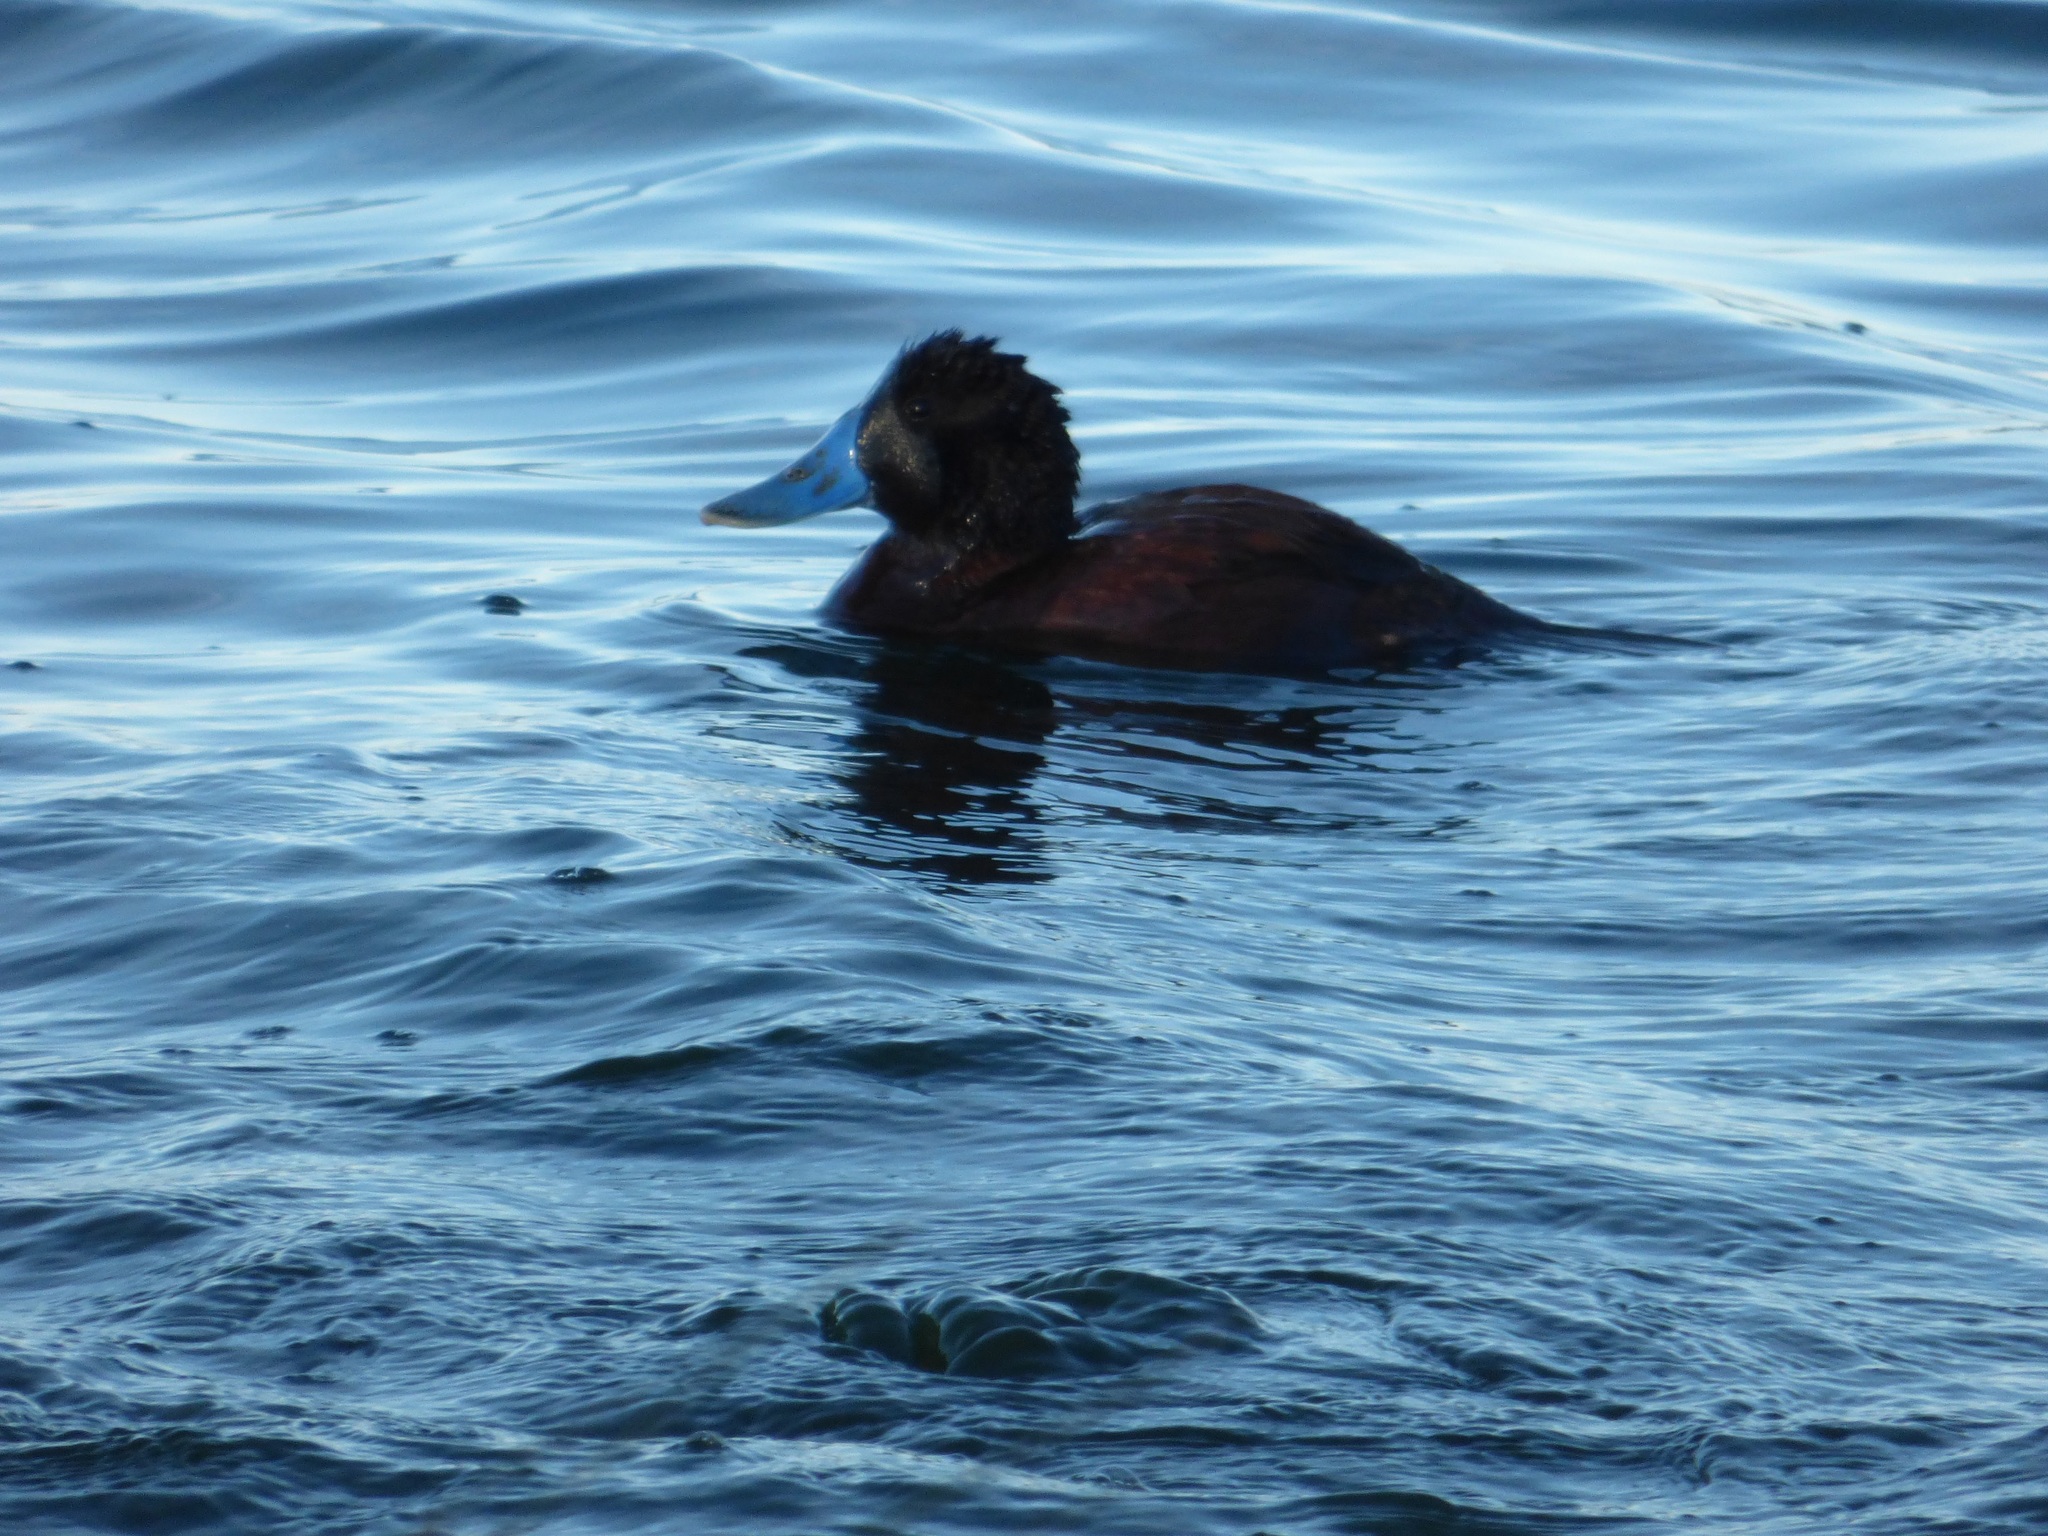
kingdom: Animalia
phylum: Chordata
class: Aves
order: Anseriformes
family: Anatidae
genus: Oxyura
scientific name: Oxyura ferruginea
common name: Andean duck
